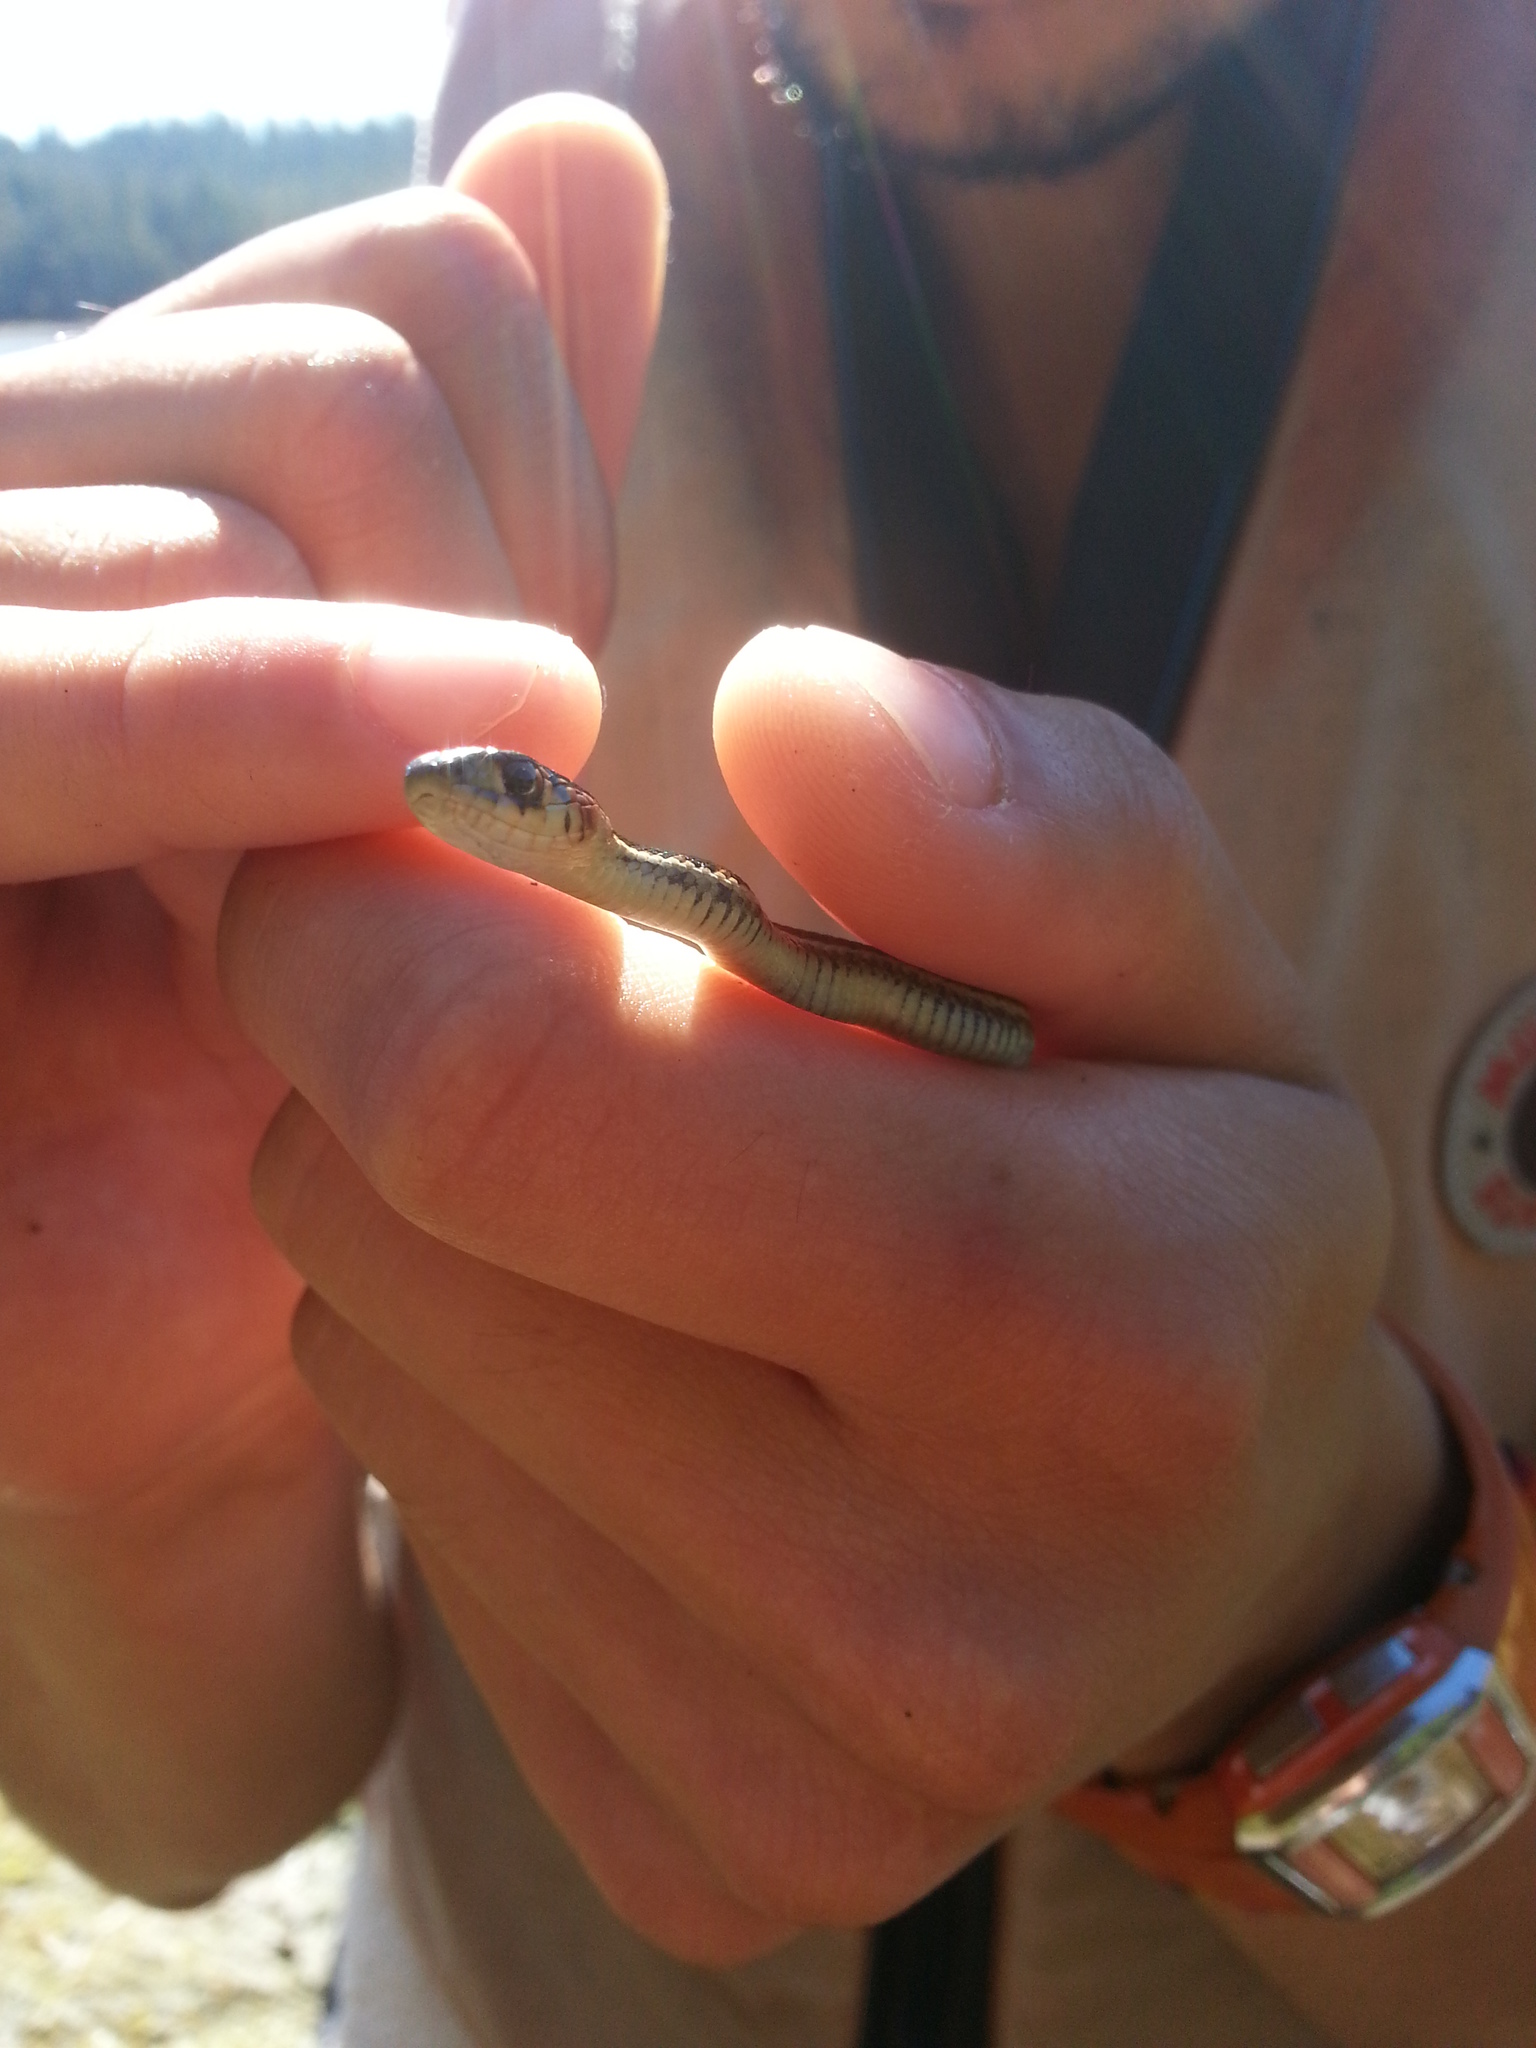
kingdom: Animalia
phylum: Chordata
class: Squamata
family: Colubridae
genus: Thamnophis
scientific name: Thamnophis sirtalis
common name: Common garter snake
